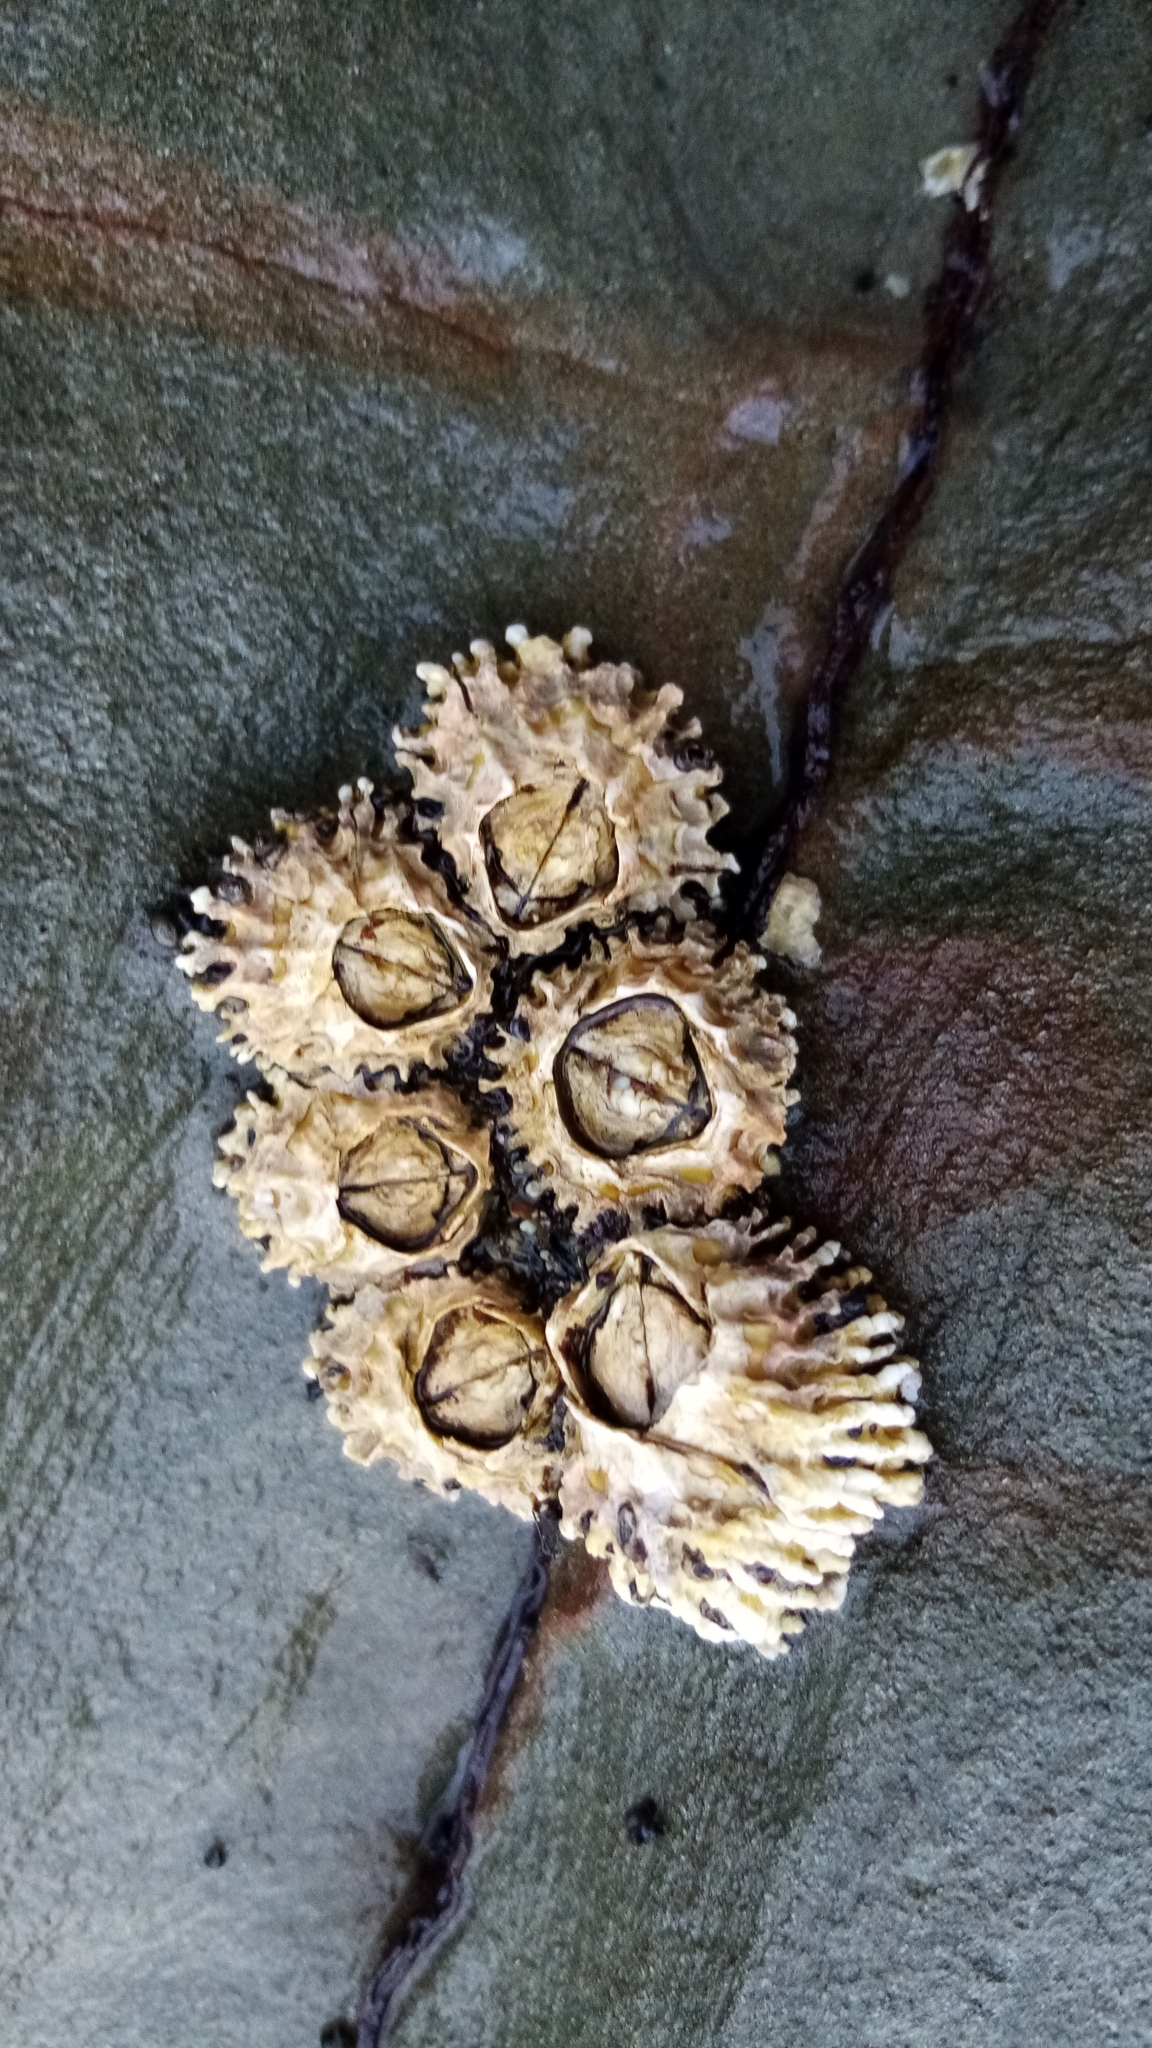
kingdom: Animalia
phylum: Arthropoda
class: Maxillopoda
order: Sessilia
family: Tetraclitidae
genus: Epopella
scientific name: Epopella plicata
